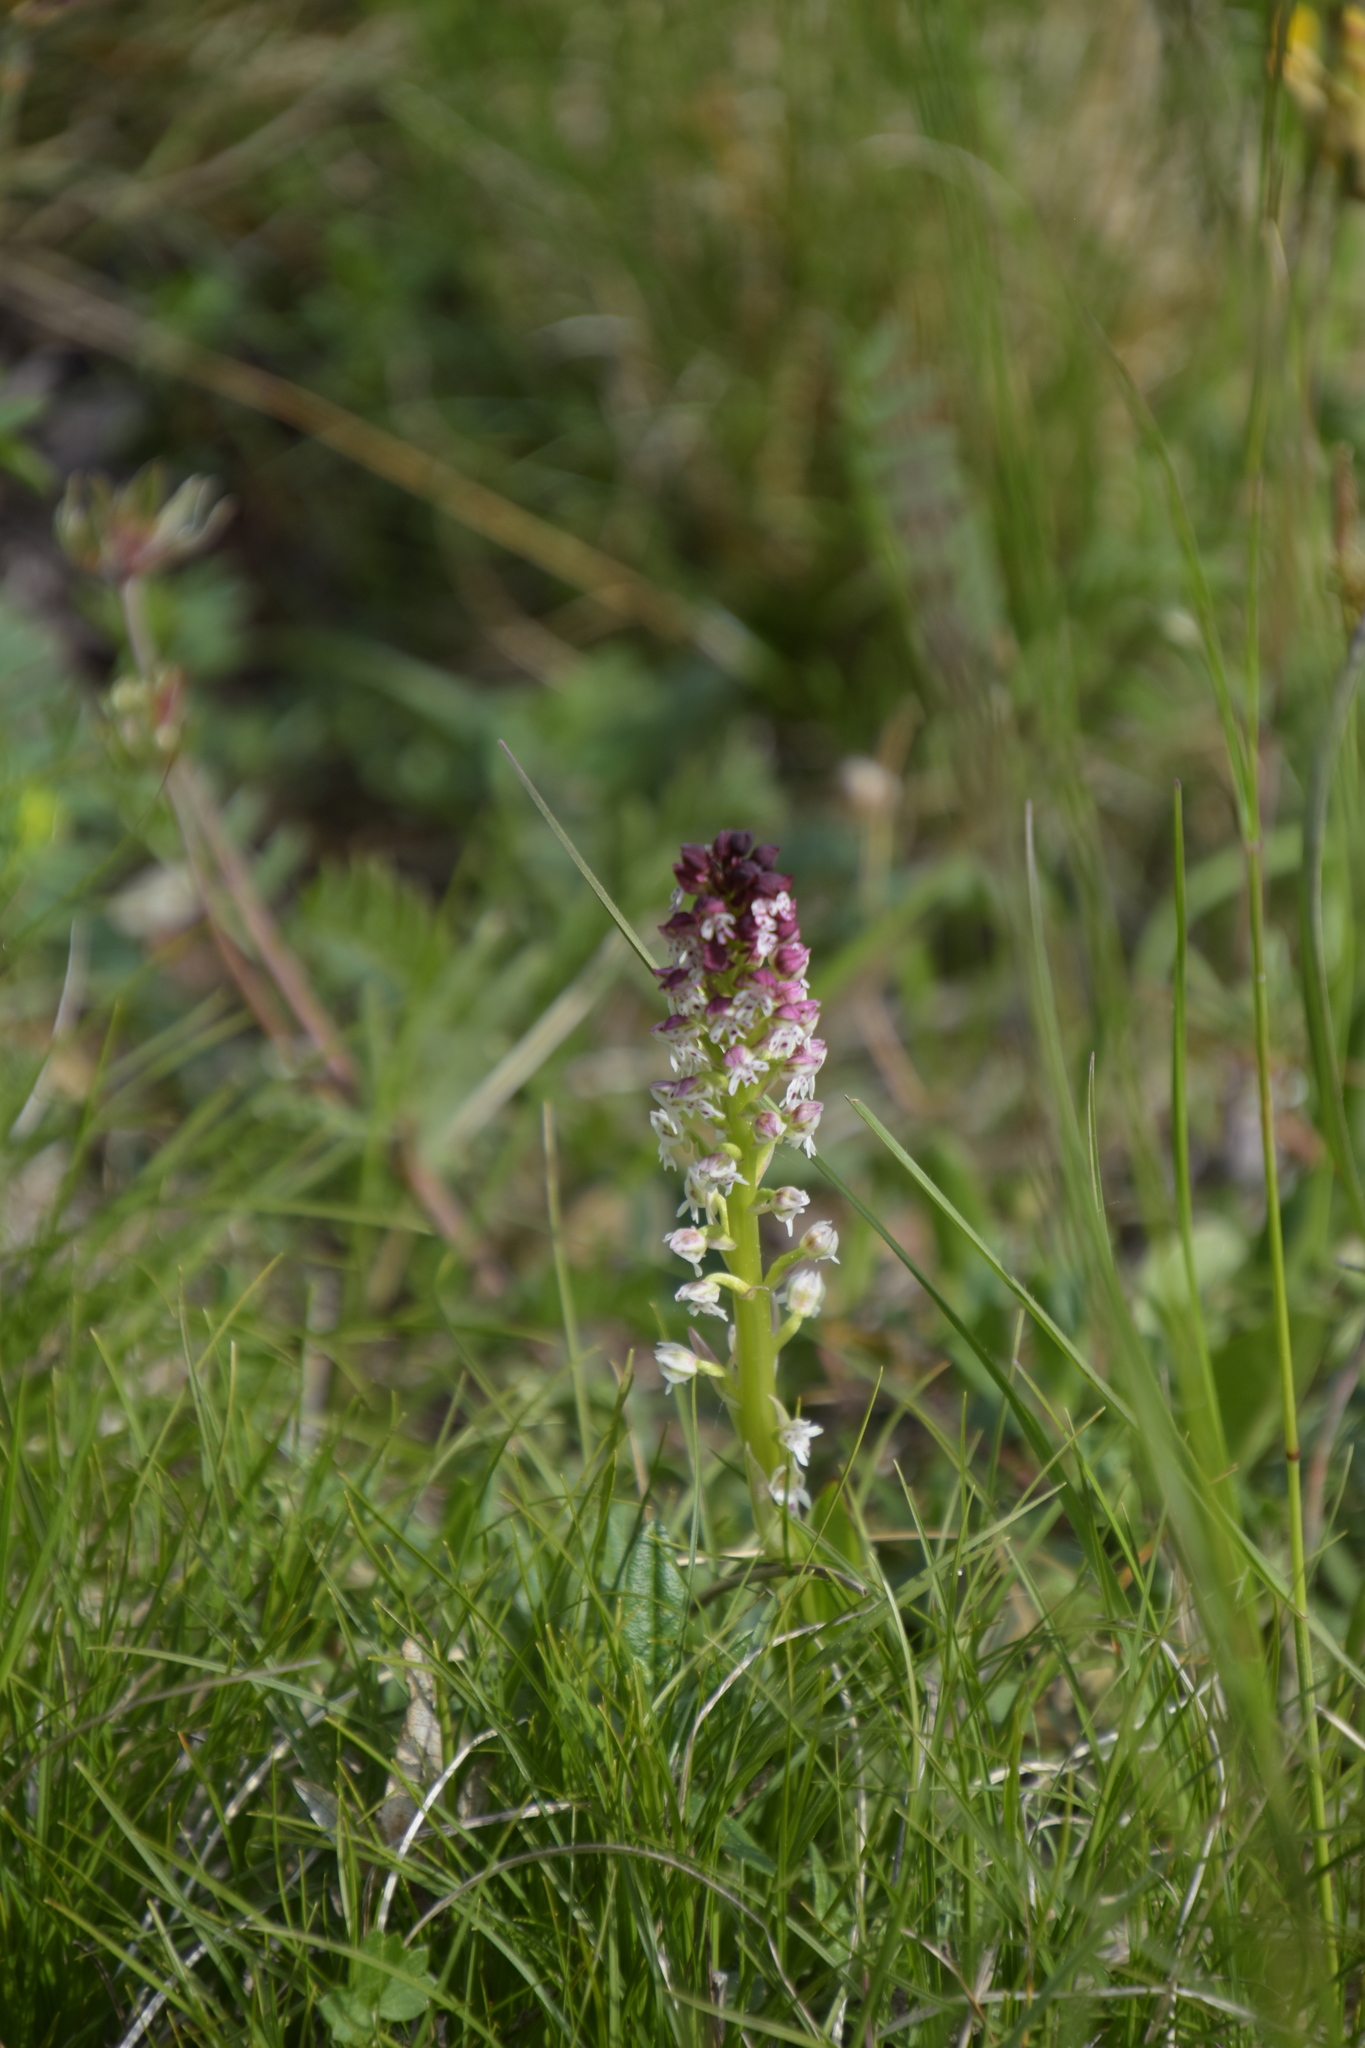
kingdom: Plantae
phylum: Tracheophyta
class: Liliopsida
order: Asparagales
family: Orchidaceae
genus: Neotinea
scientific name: Neotinea ustulata
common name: Burnt orchid
